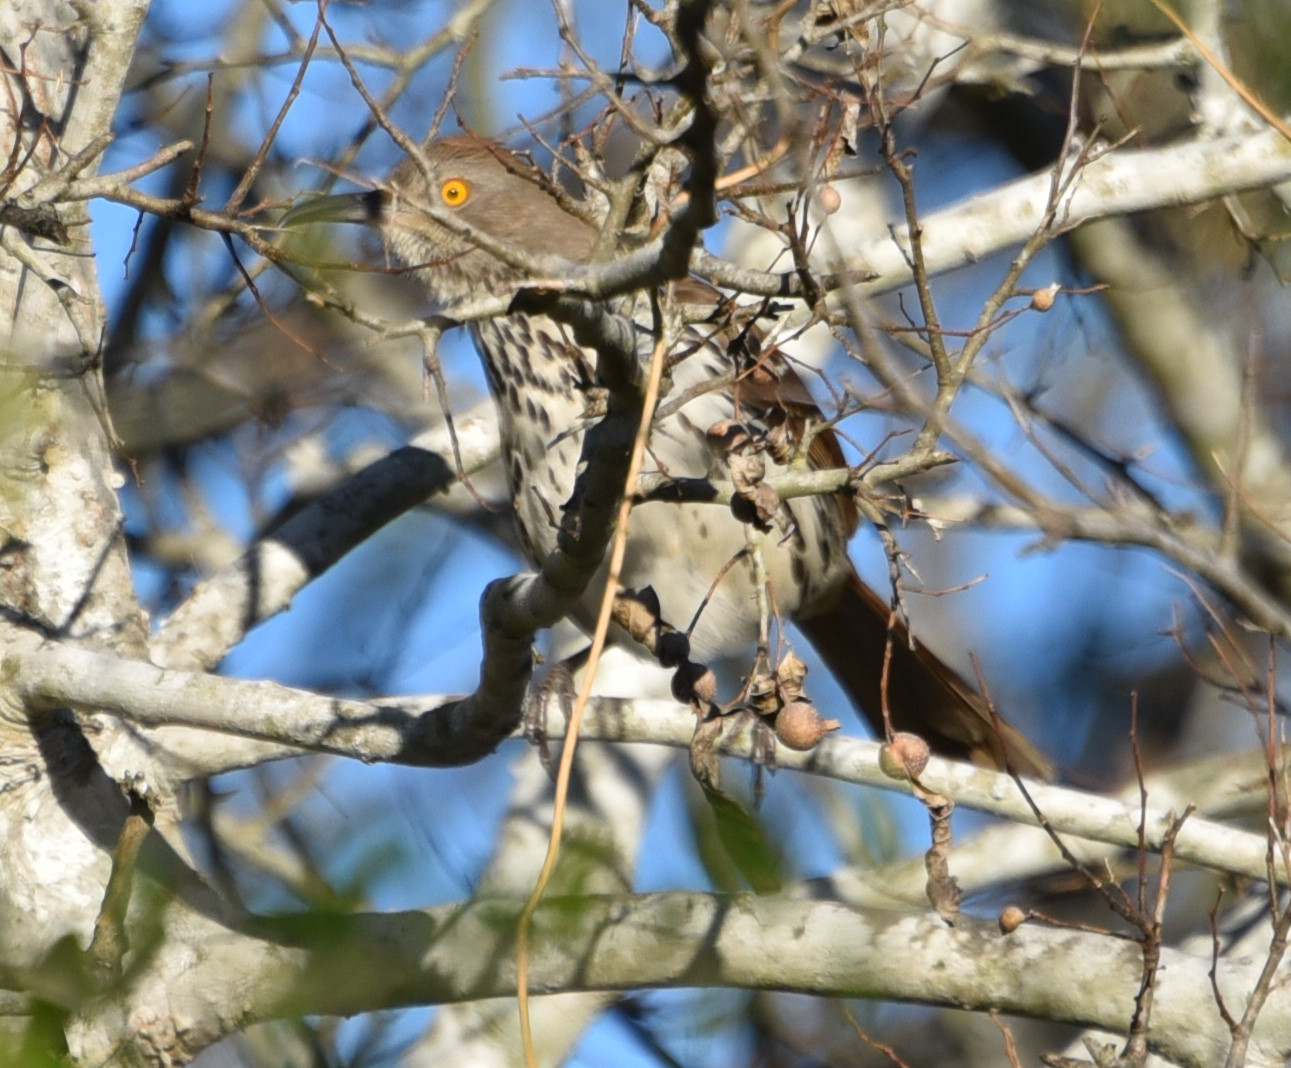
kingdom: Animalia
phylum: Chordata
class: Aves
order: Passeriformes
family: Mimidae
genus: Toxostoma
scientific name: Toxostoma longirostre
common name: Long-billed thrasher
